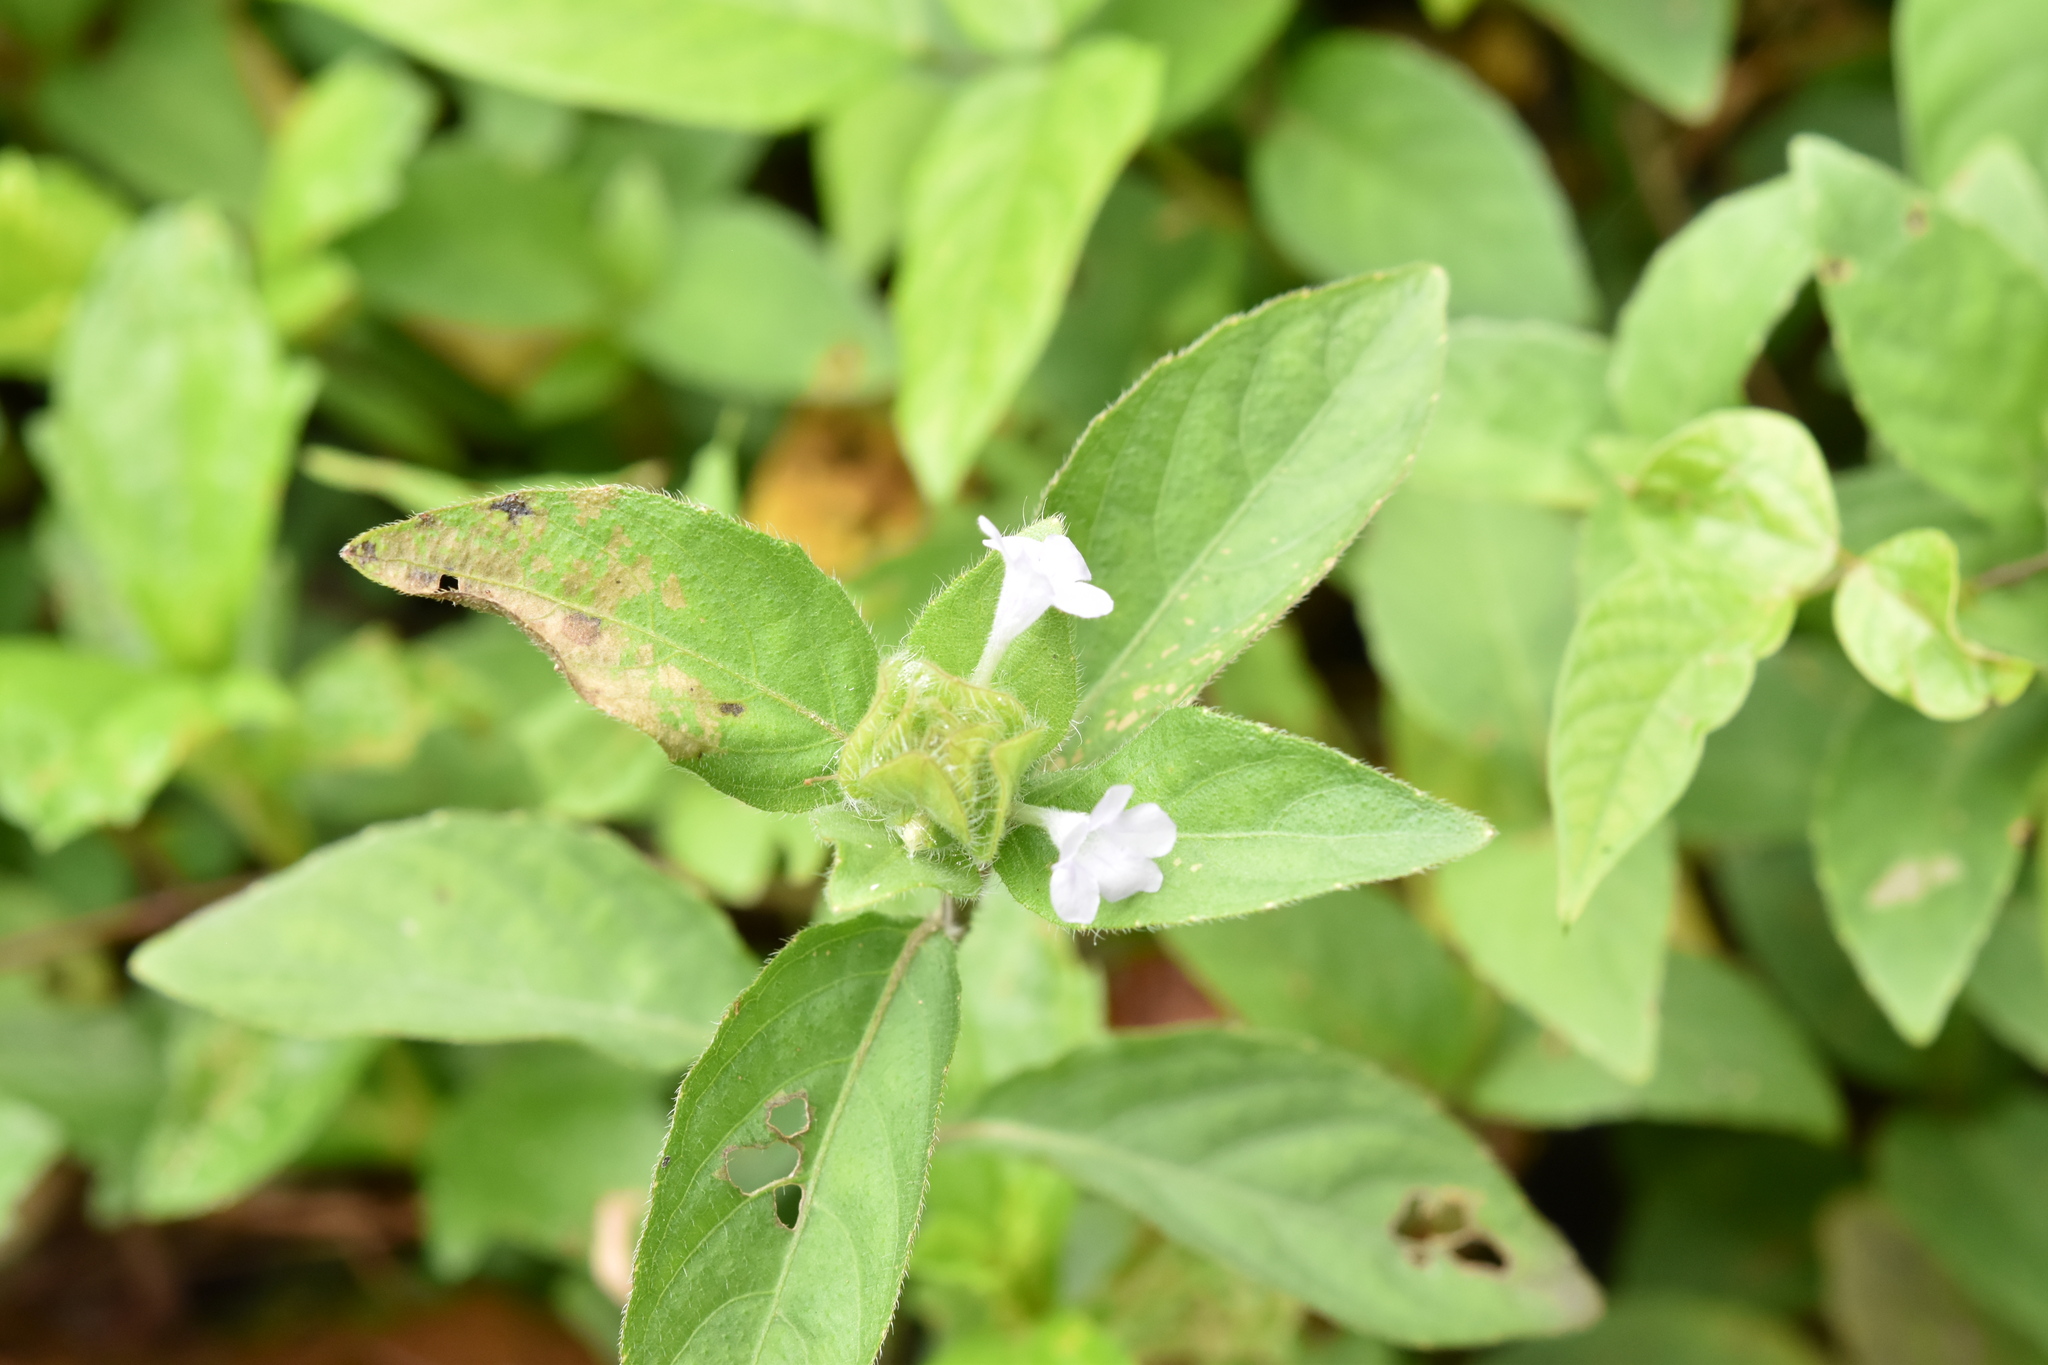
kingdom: Plantae
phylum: Tracheophyta
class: Magnoliopsida
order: Lamiales
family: Acanthaceae
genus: Ruellia
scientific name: Ruellia blechum
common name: Browne's blechum
